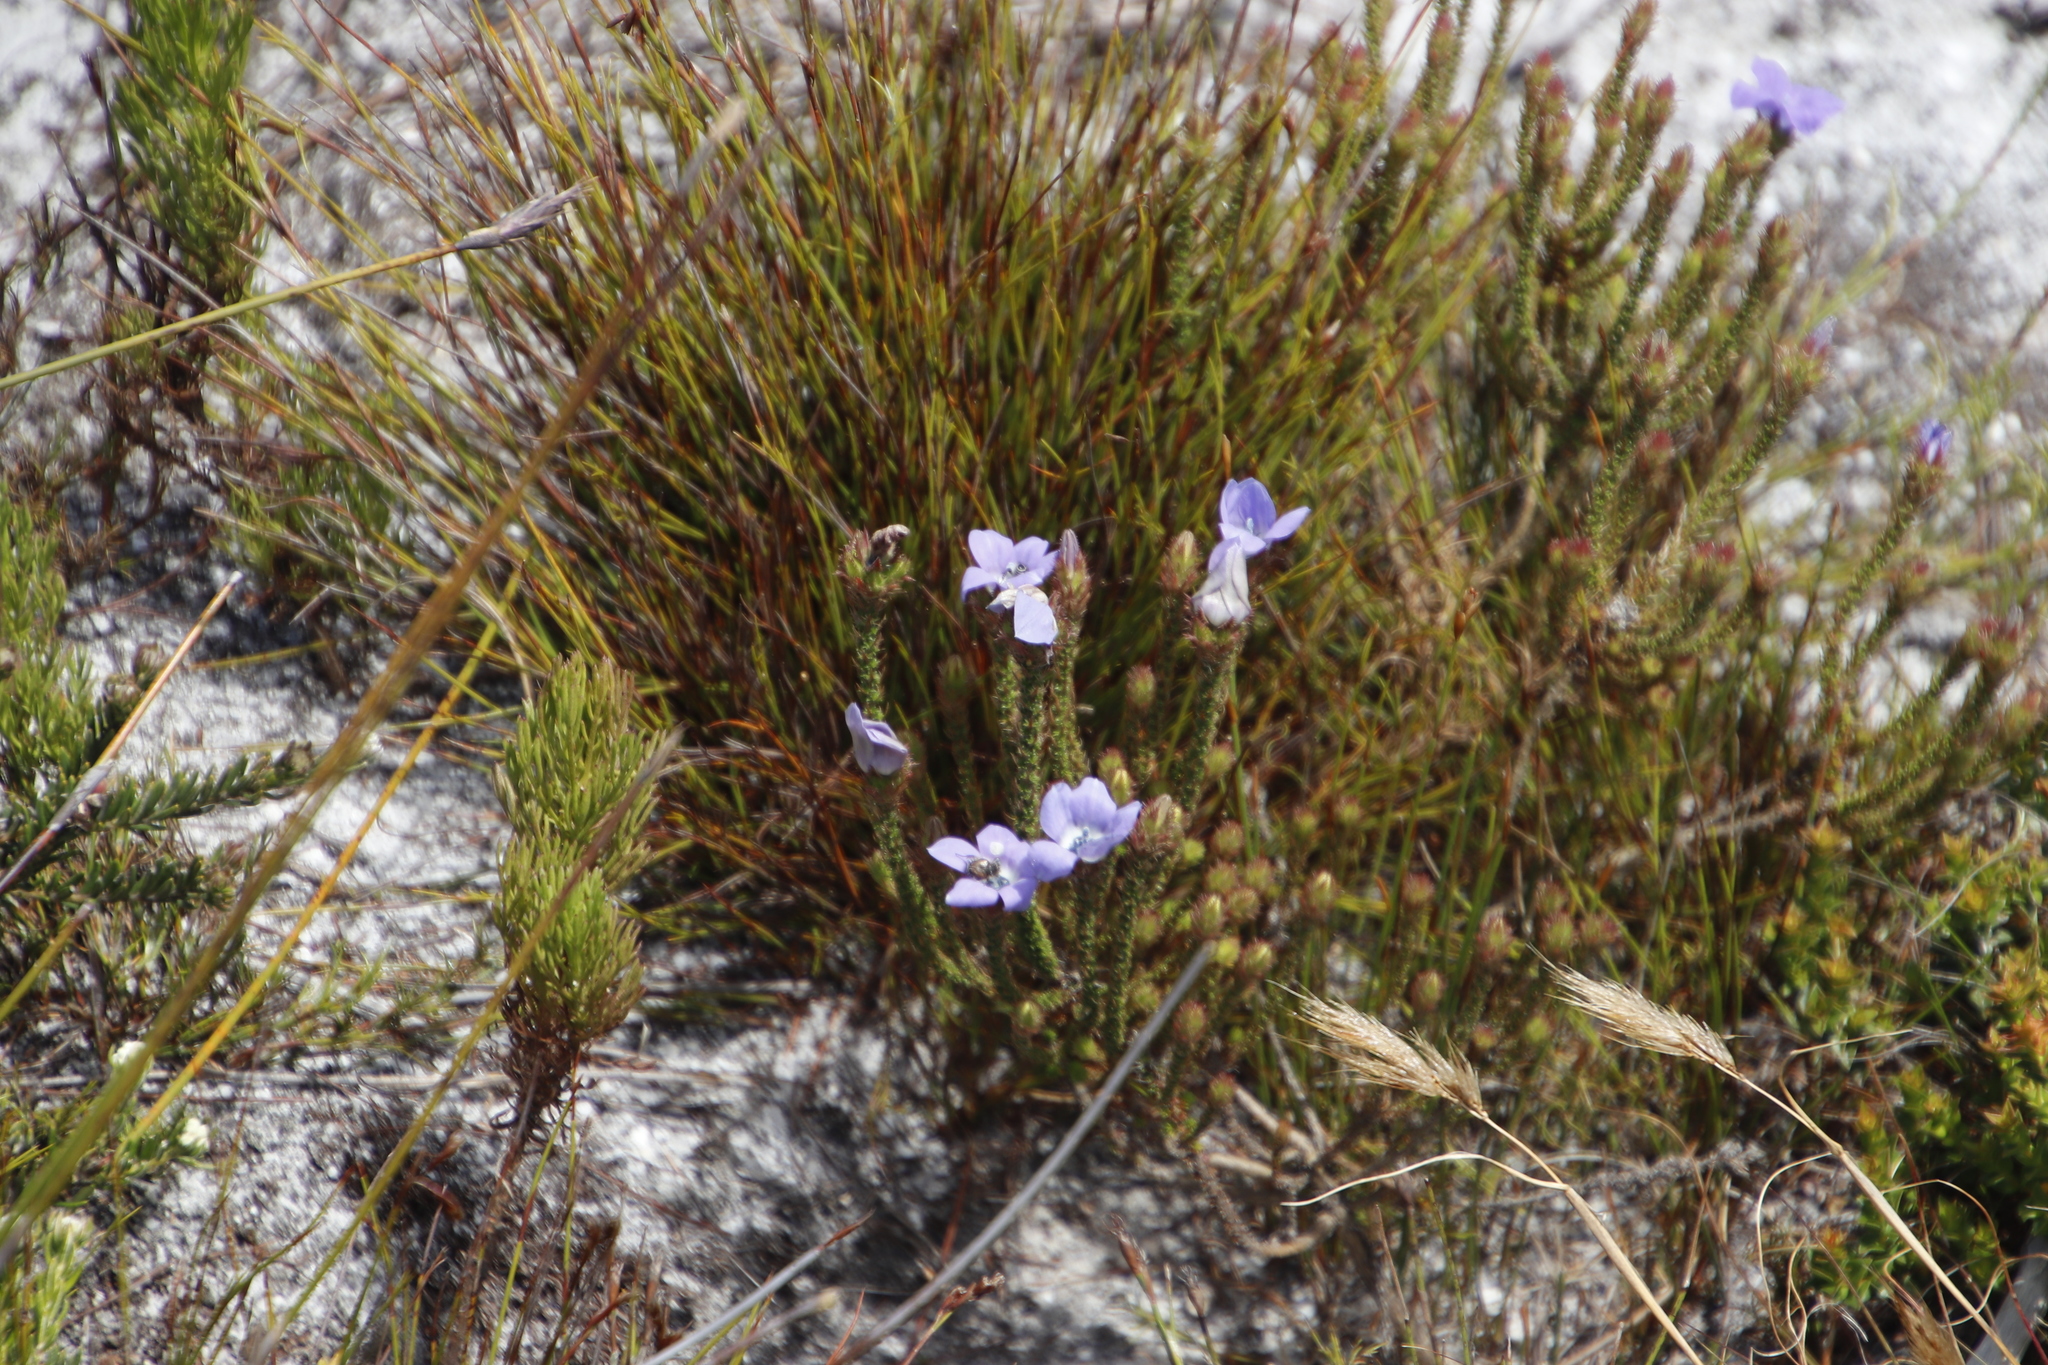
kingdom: Plantae
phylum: Tracheophyta
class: Magnoliopsida
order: Asterales
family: Campanulaceae
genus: Roella
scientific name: Roella triflora
